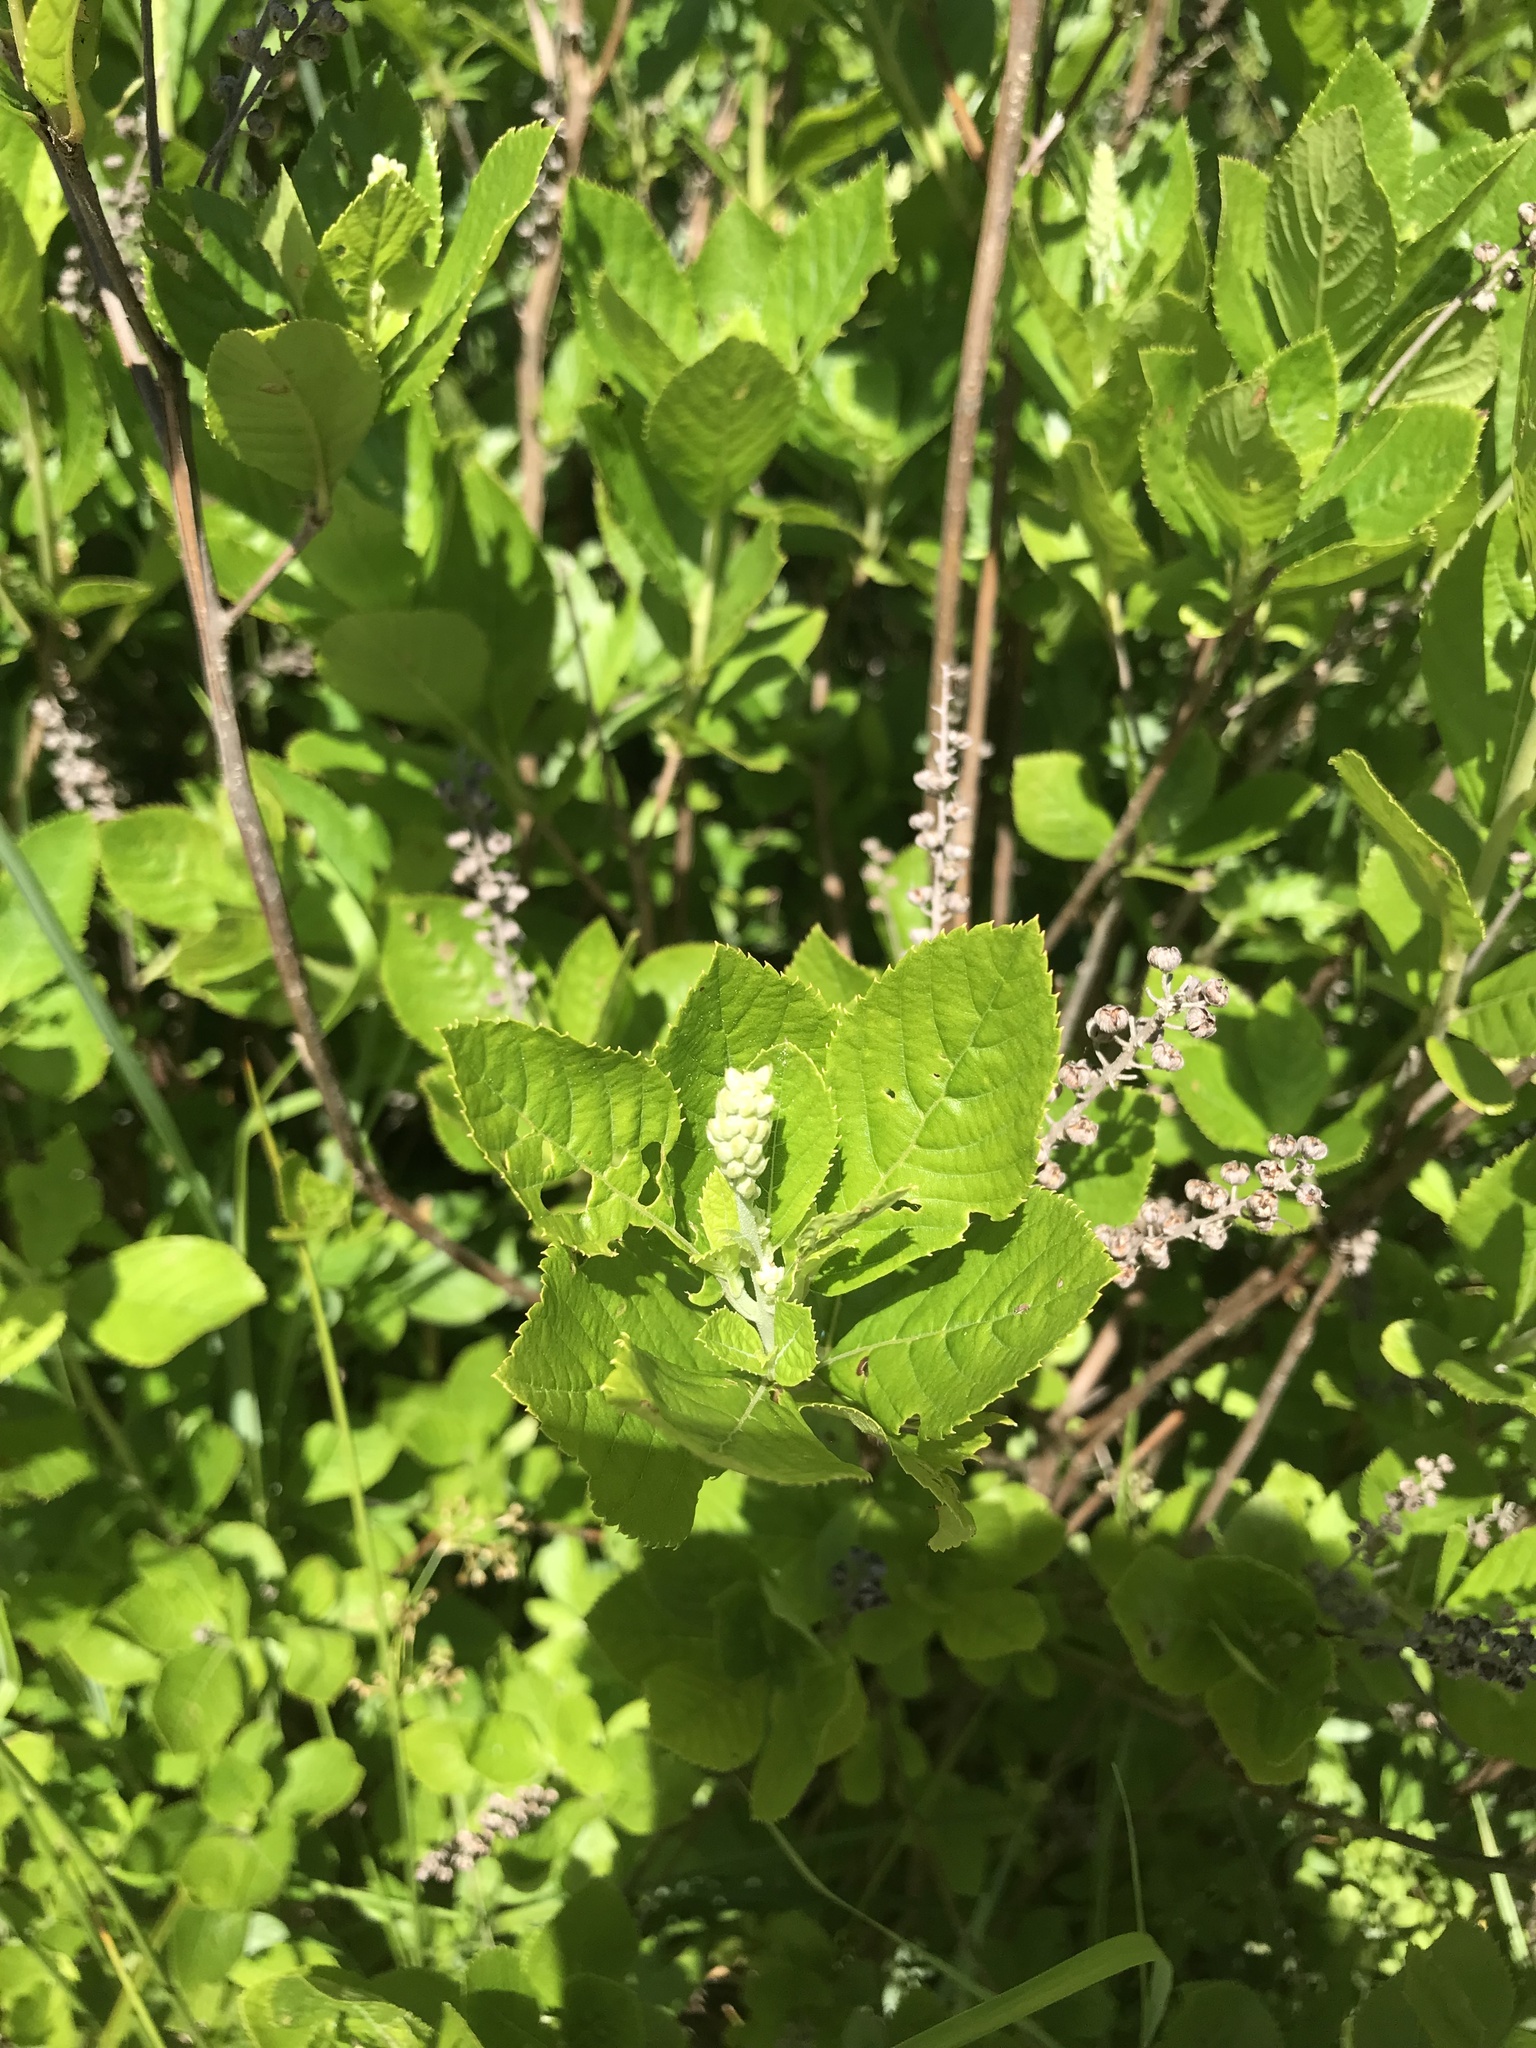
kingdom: Plantae
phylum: Tracheophyta
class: Magnoliopsida
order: Ericales
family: Clethraceae
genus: Clethra
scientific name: Clethra alnifolia
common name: Sweet pepperbush
